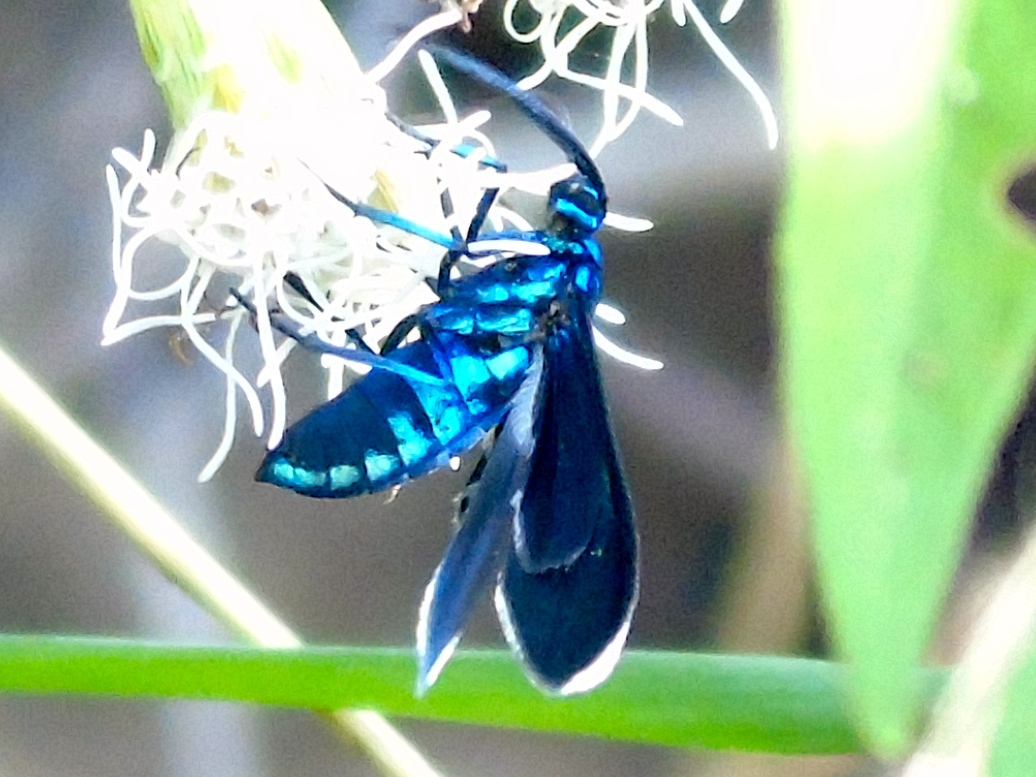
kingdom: Animalia
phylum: Arthropoda
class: Insecta
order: Lepidoptera
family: Erebidae
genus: Uranophora
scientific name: Uranophora leucotela
